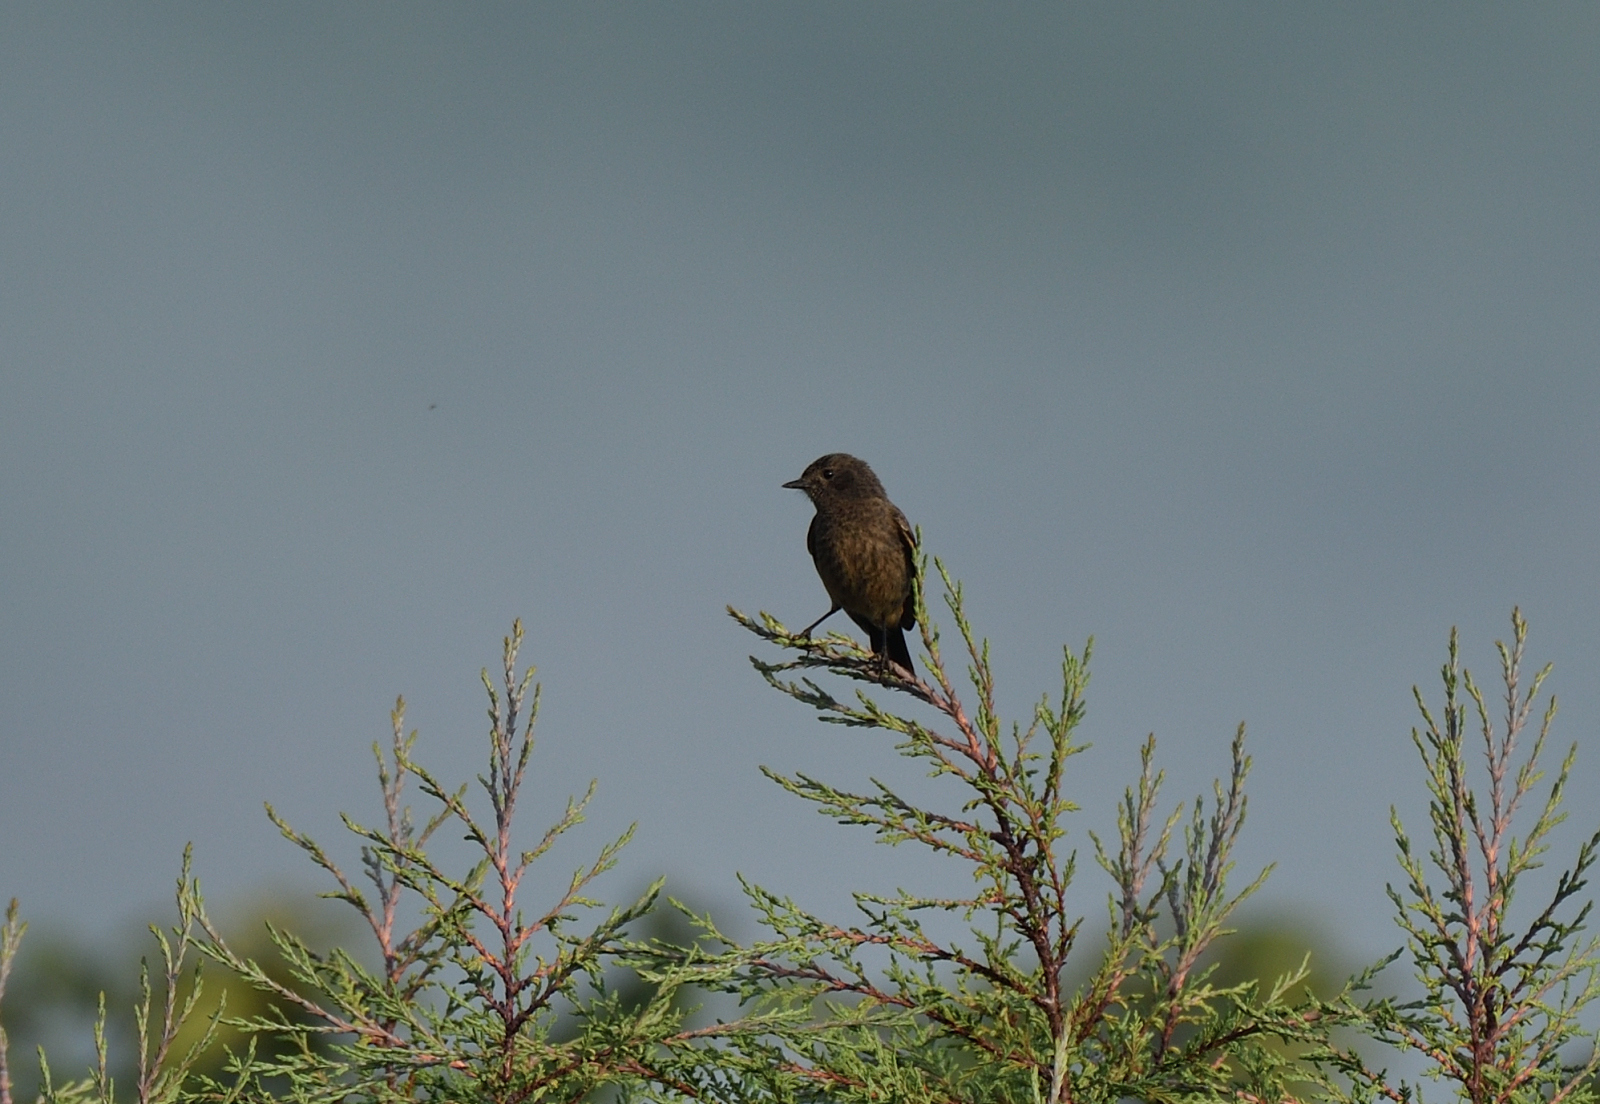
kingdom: Animalia
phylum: Chordata
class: Aves
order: Passeriformes
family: Muscicapidae
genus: Saxicola
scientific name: Saxicola caprata
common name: Pied bush chat
